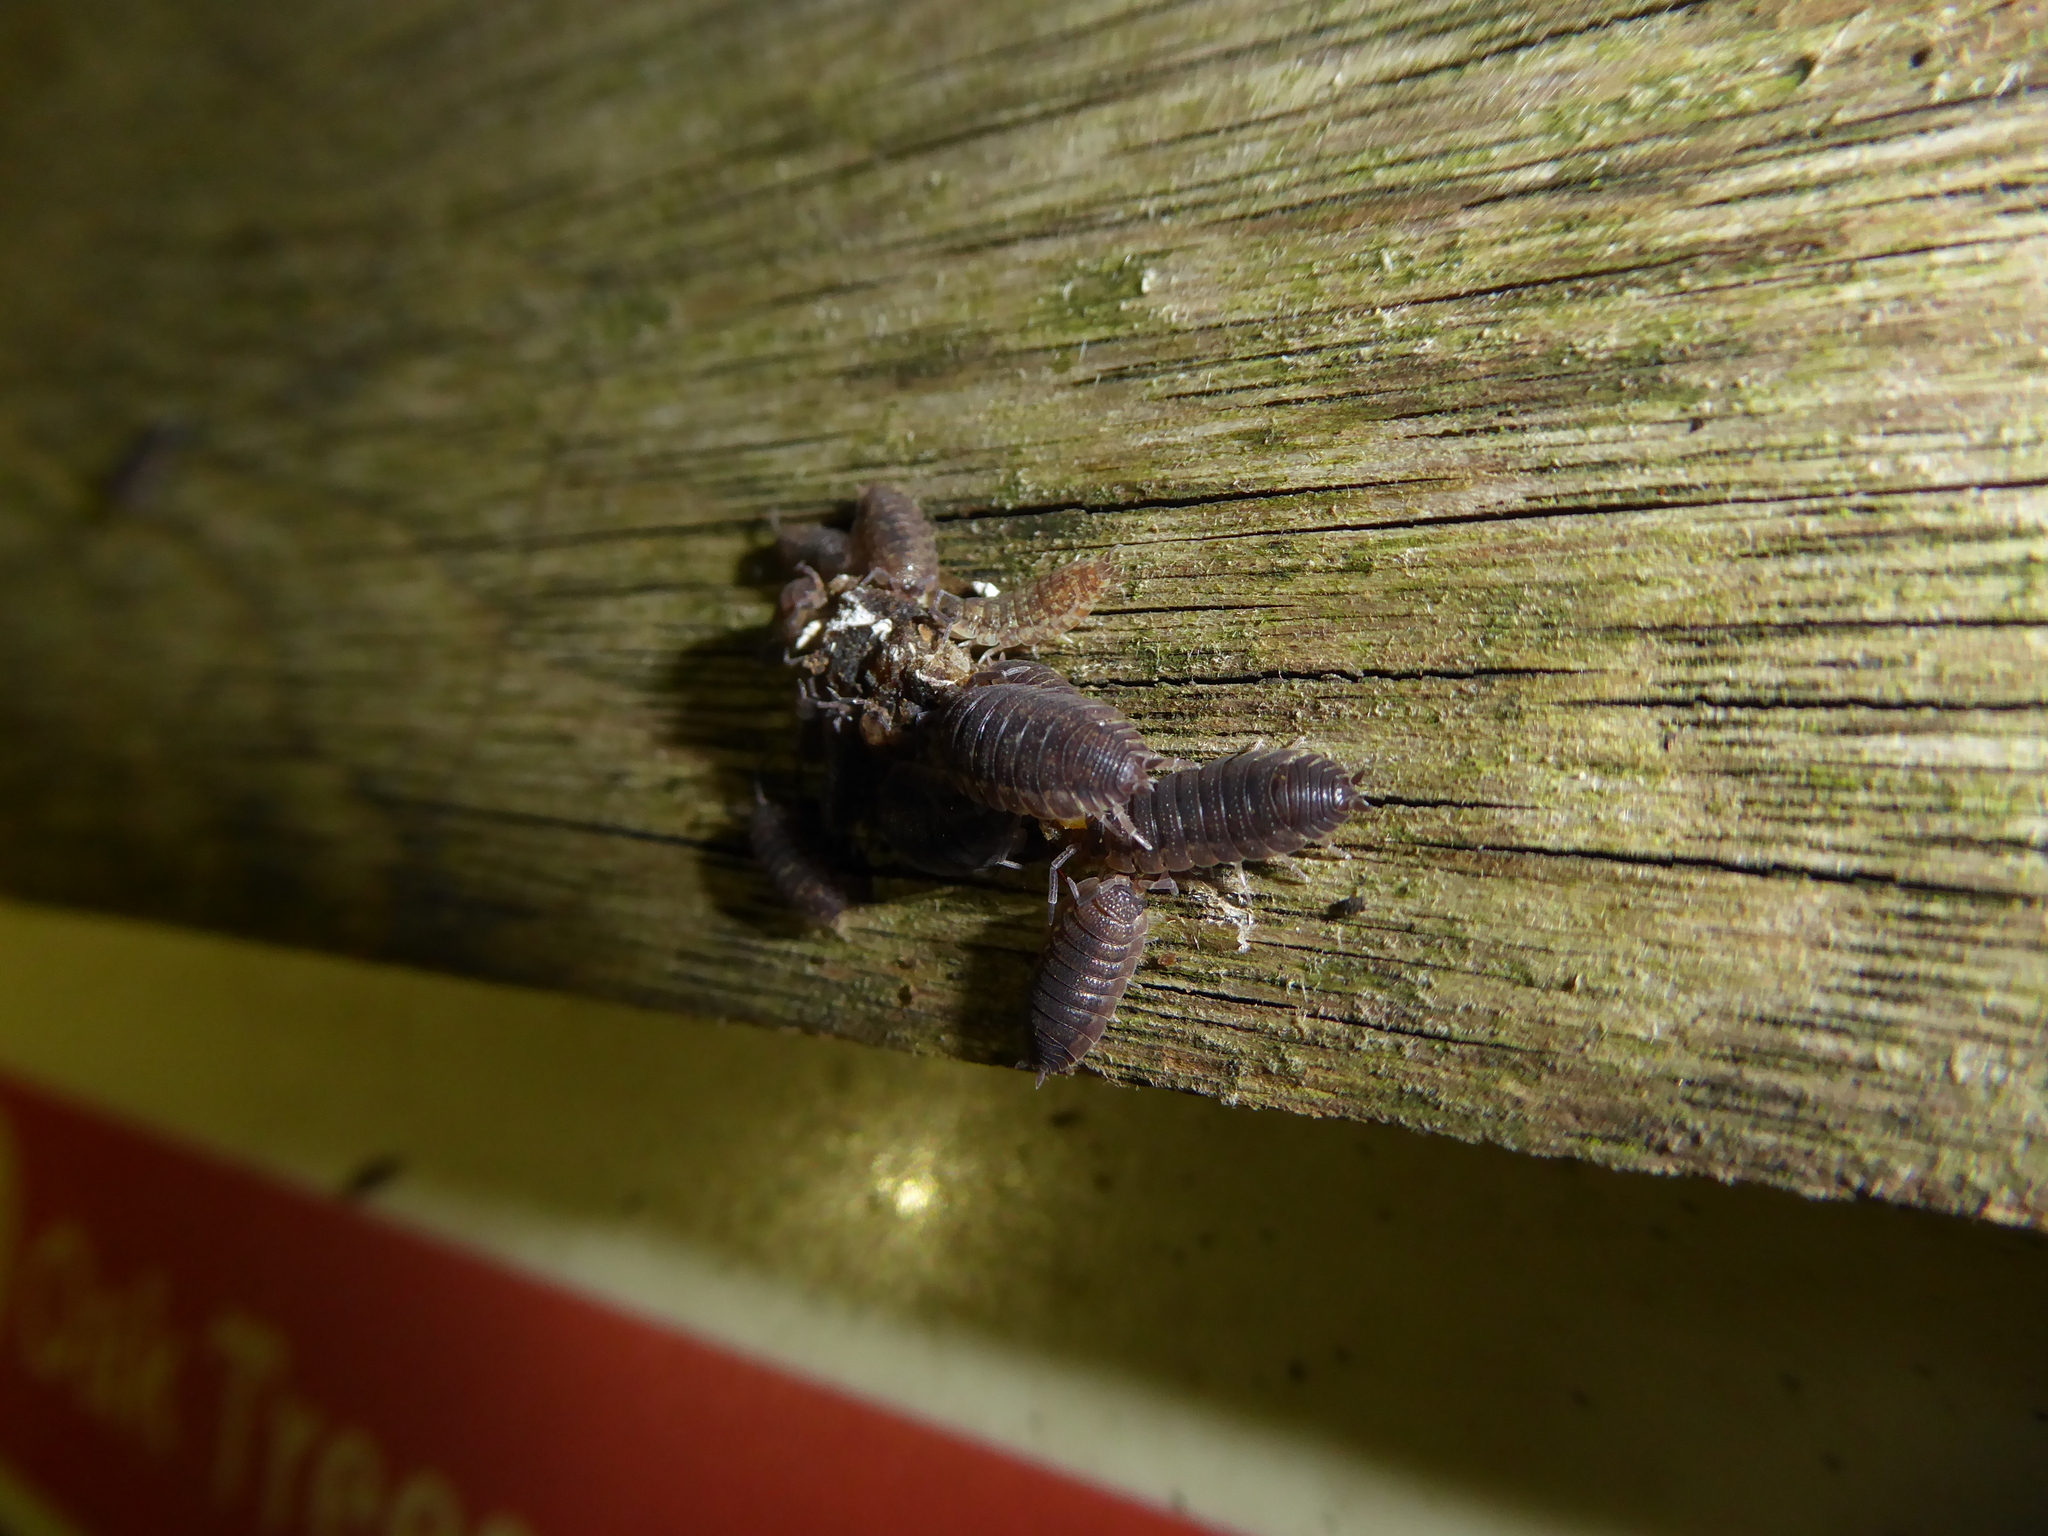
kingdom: Animalia
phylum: Arthropoda
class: Malacostraca
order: Isopoda
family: Porcellionidae
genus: Porcellio
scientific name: Porcellio scaber
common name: Common rough woodlouse
